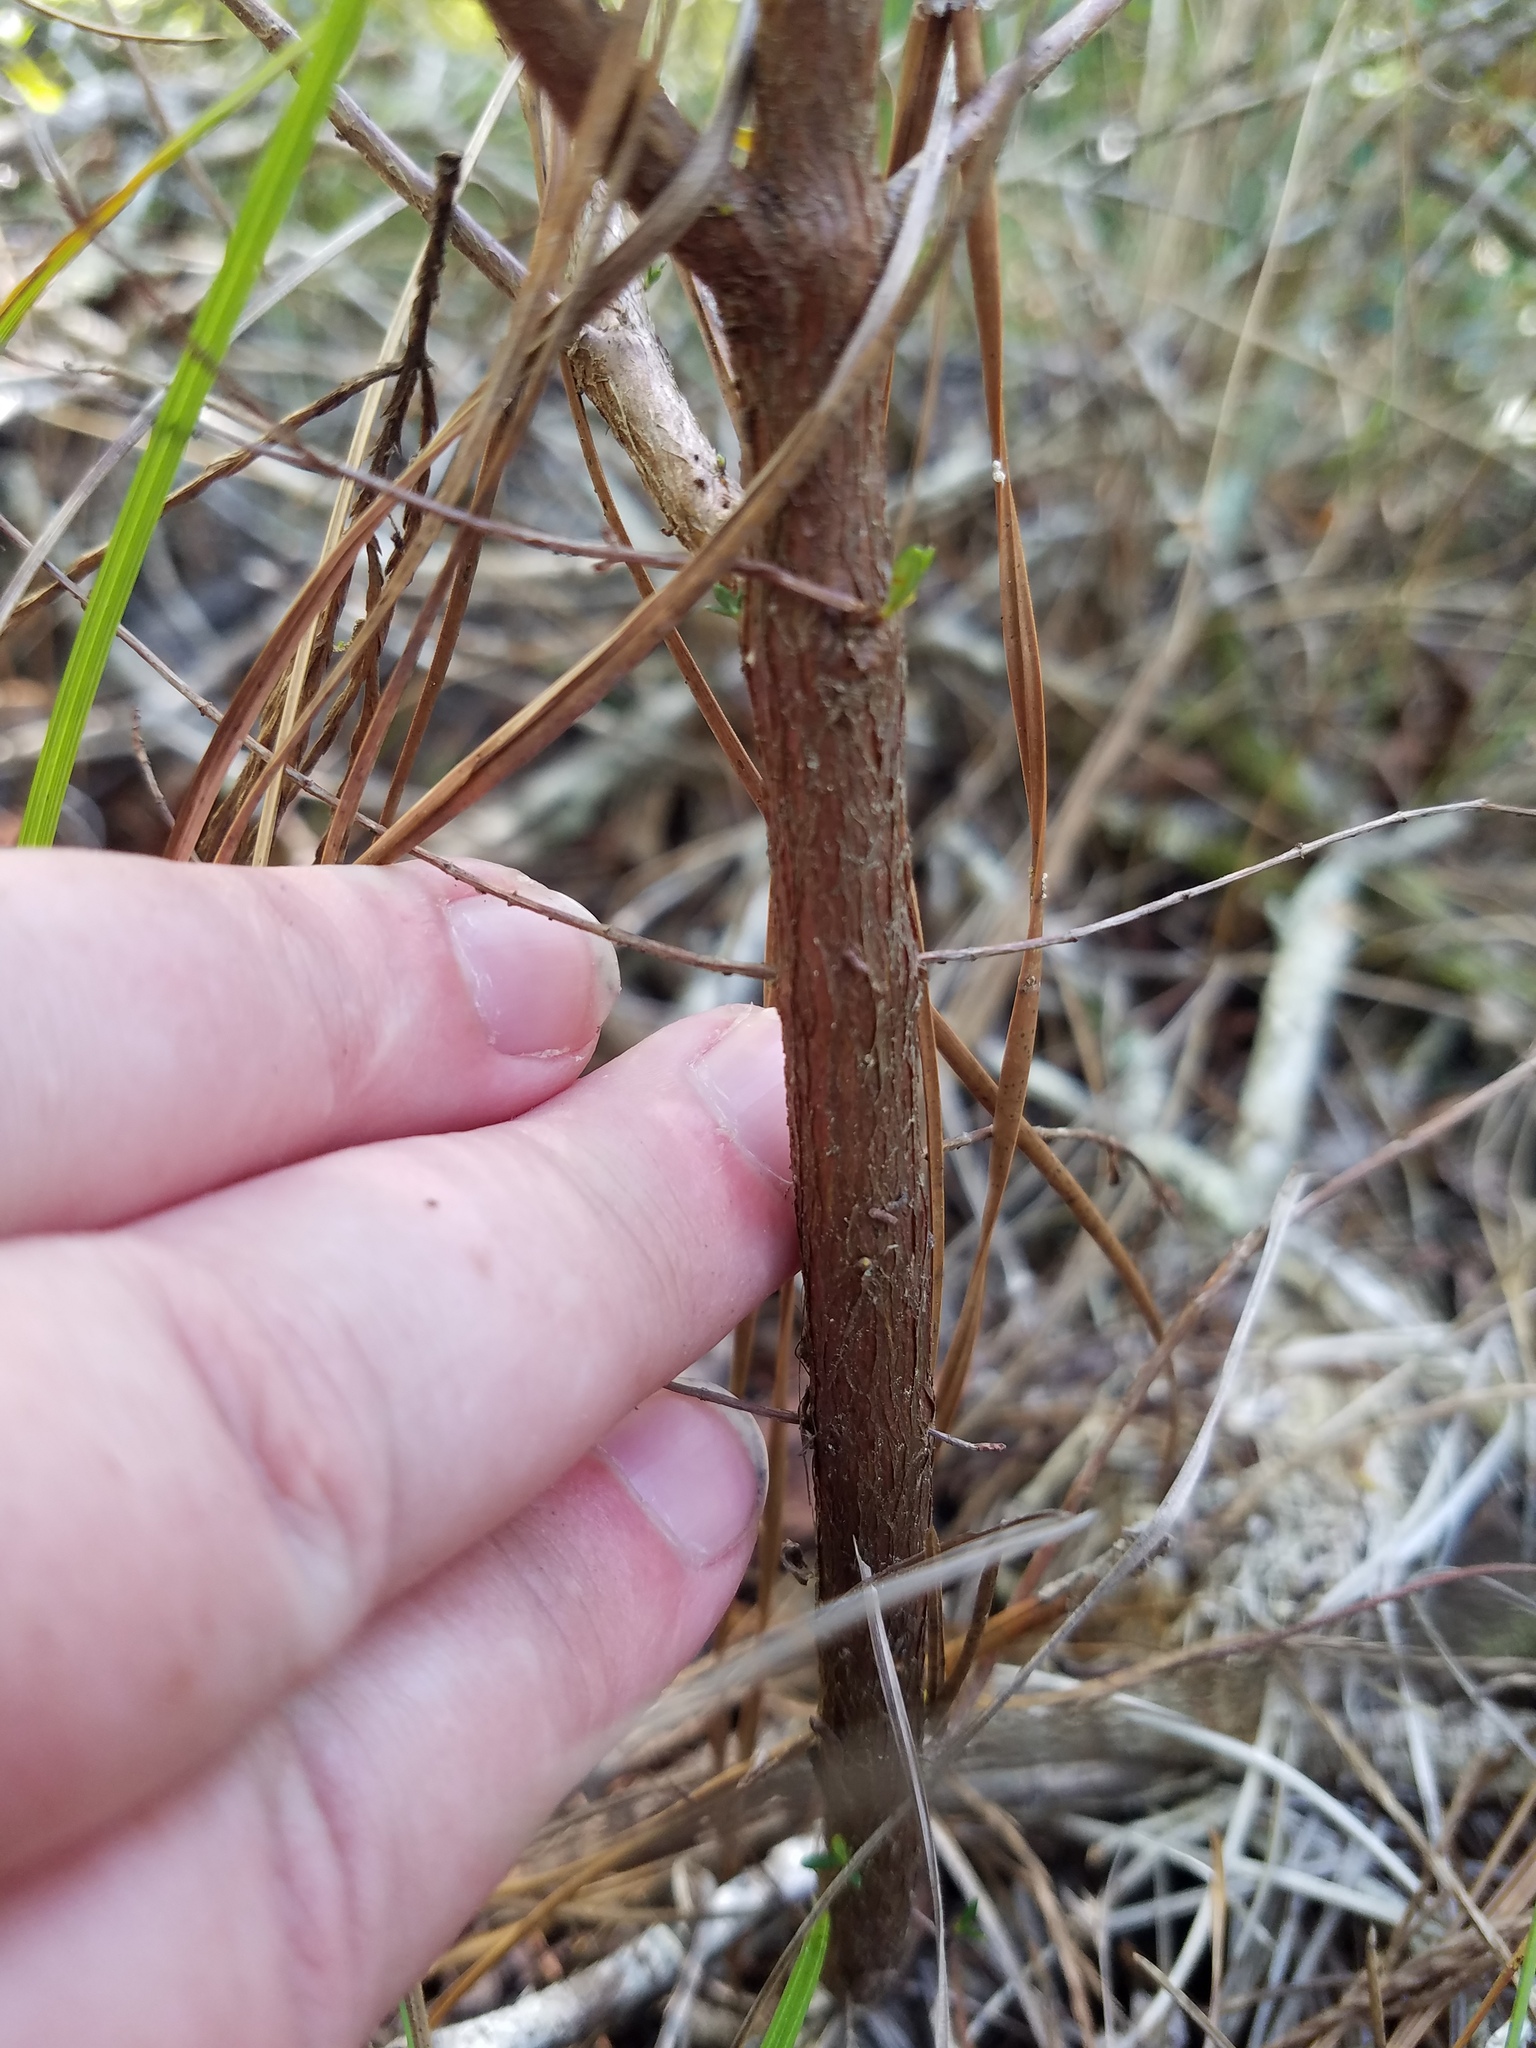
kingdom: Plantae
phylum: Tracheophyta
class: Magnoliopsida
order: Malpighiales
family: Hypericaceae
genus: Hypericum
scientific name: Hypericum galioides
